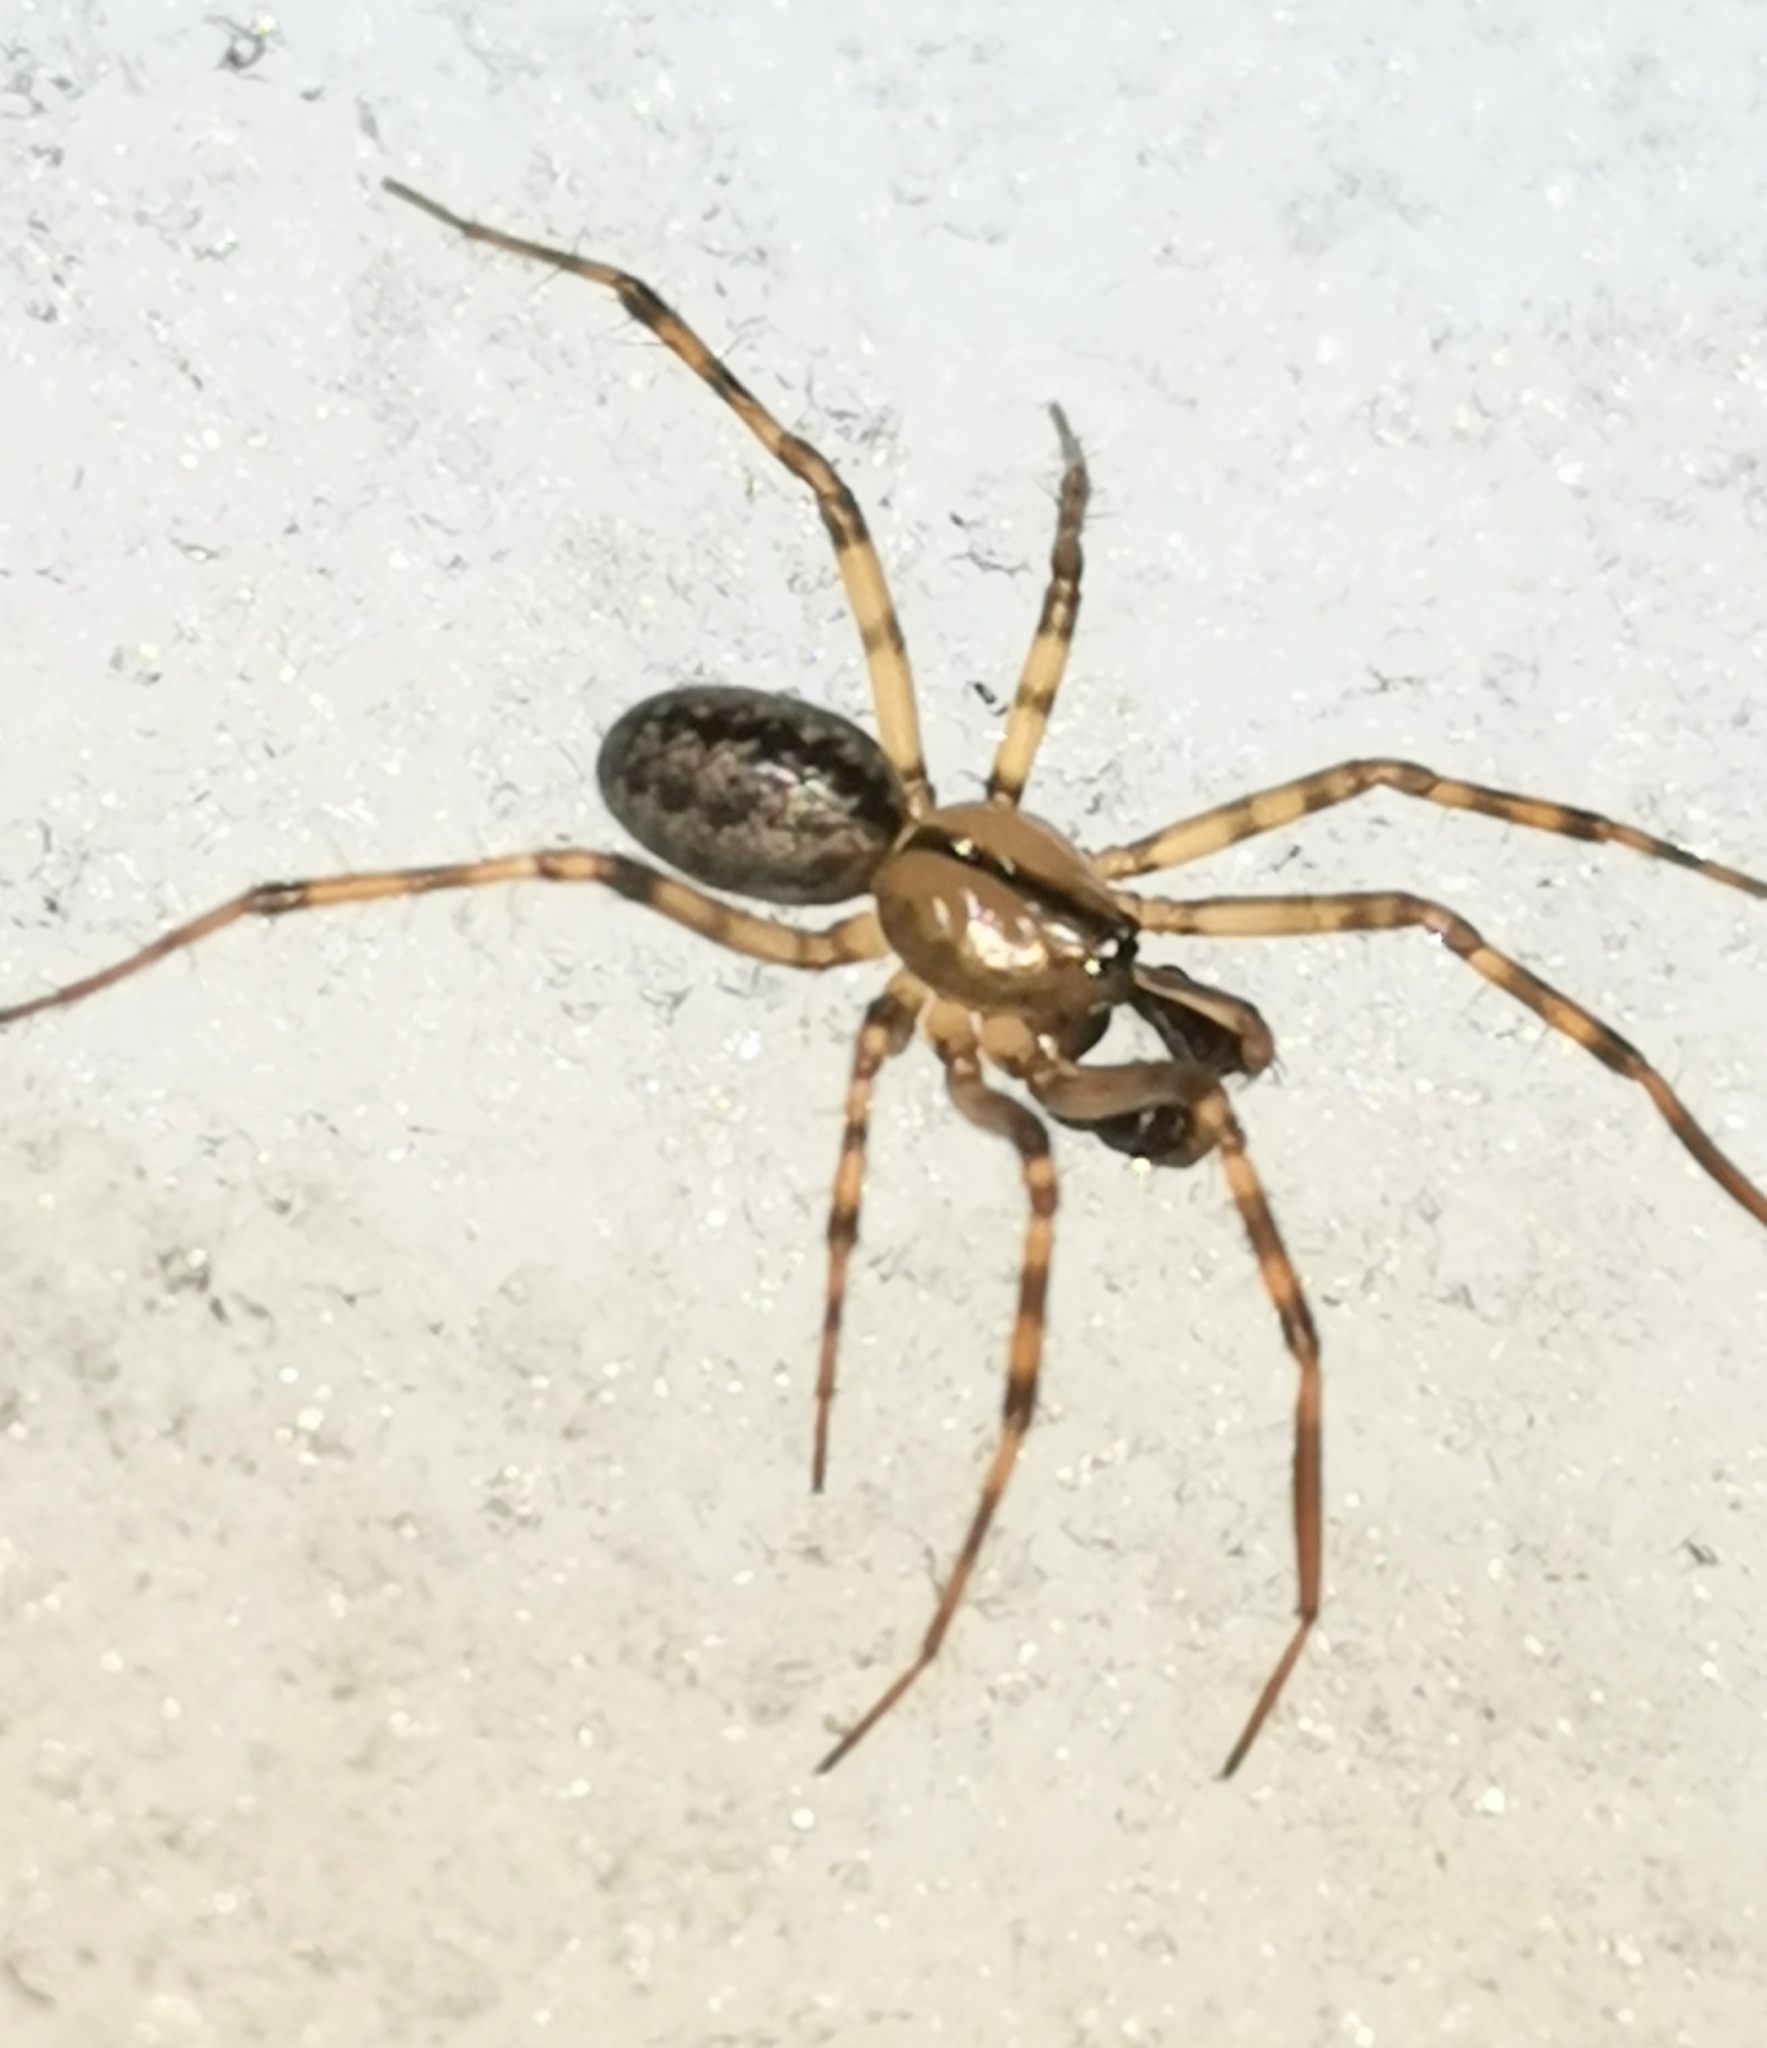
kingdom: Animalia
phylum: Arthropoda
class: Arachnida
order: Araneae
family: Linyphiidae
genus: Stemonyphantes
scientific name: Stemonyphantes lineatus
